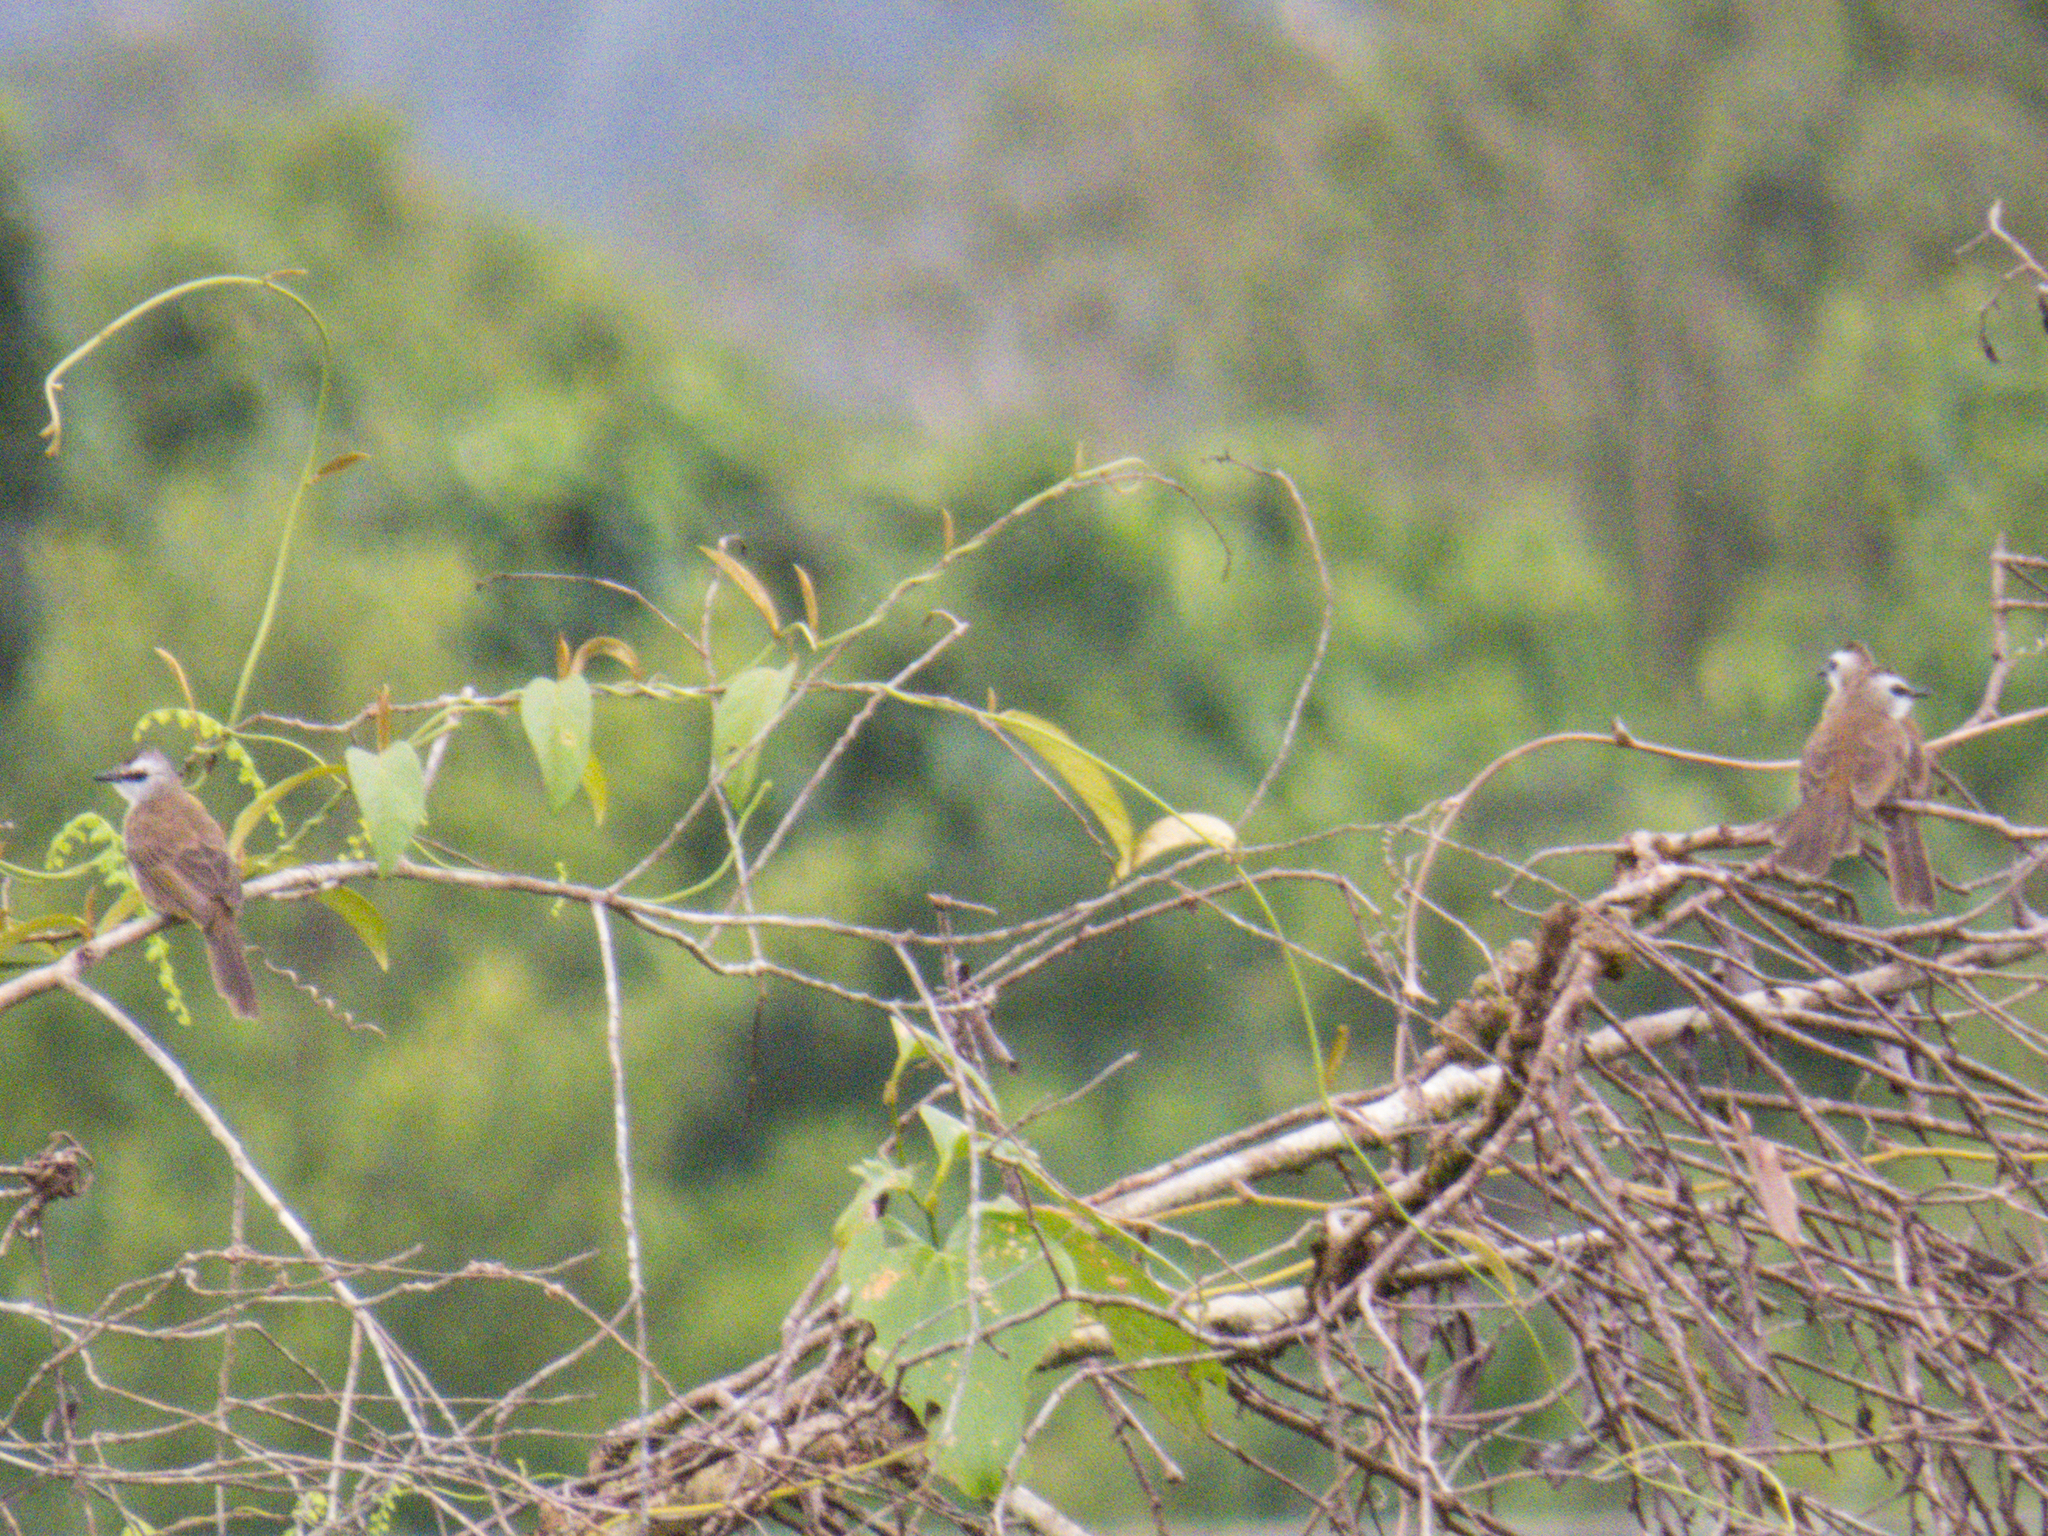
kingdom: Animalia
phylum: Chordata
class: Aves
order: Passeriformes
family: Pycnonotidae
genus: Pycnonotus
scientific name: Pycnonotus goiavier
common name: Yellow-vented bulbul
